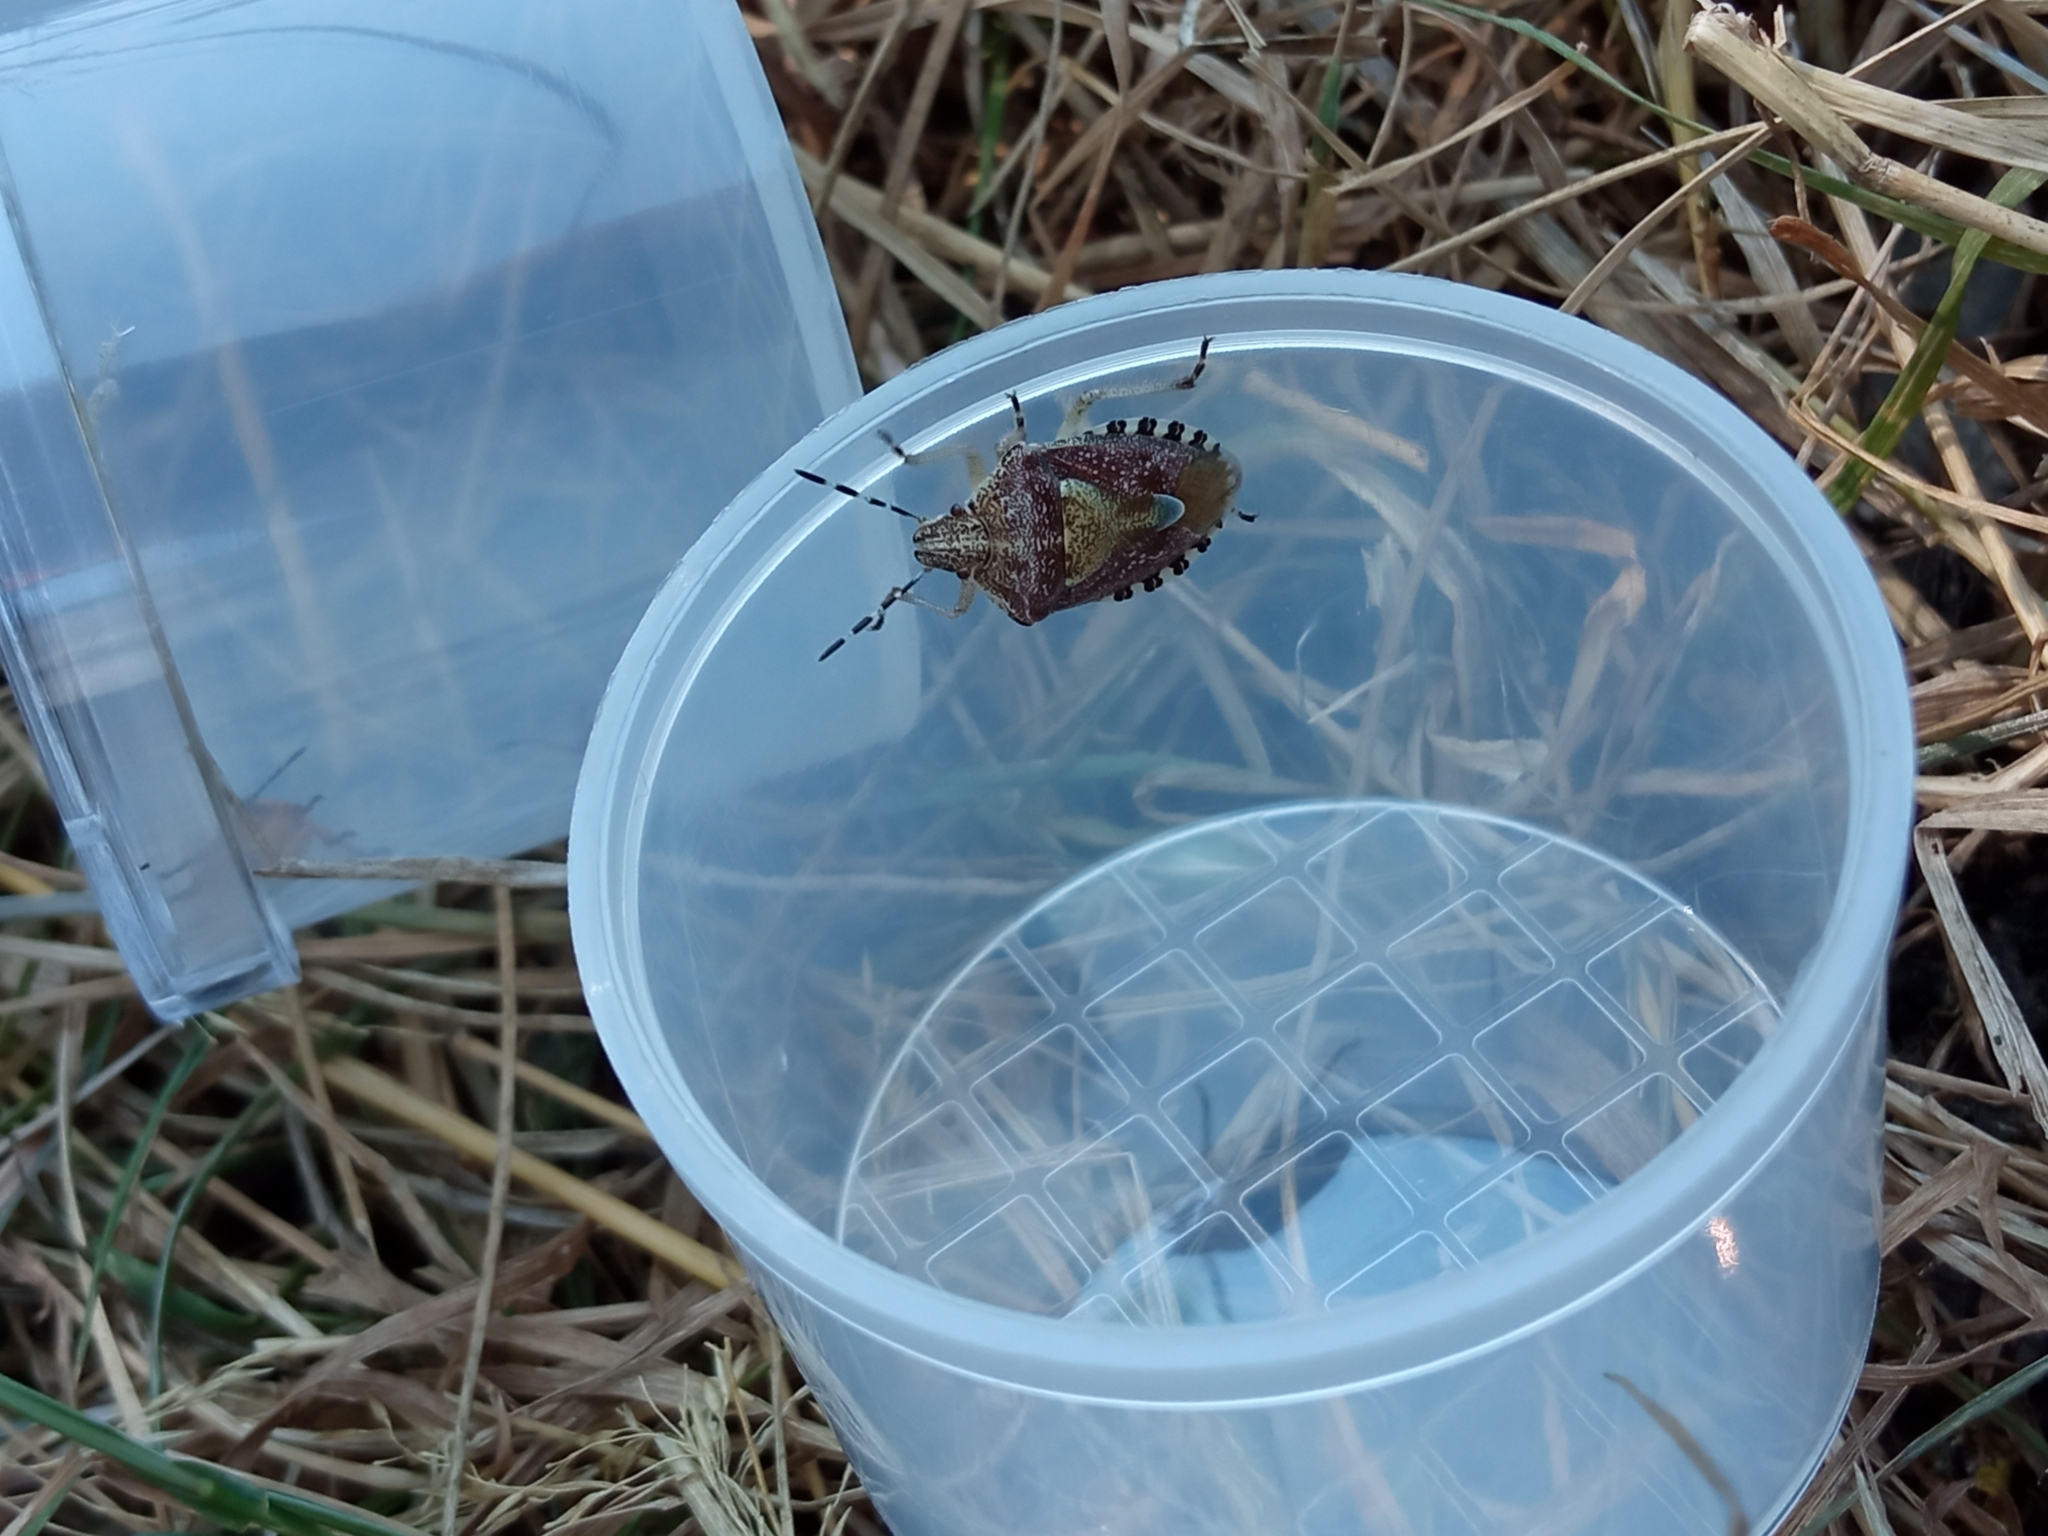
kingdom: Animalia
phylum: Arthropoda
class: Insecta
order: Hemiptera
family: Pentatomidae
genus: Dolycoris
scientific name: Dolycoris baccarum
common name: Sloe bug
